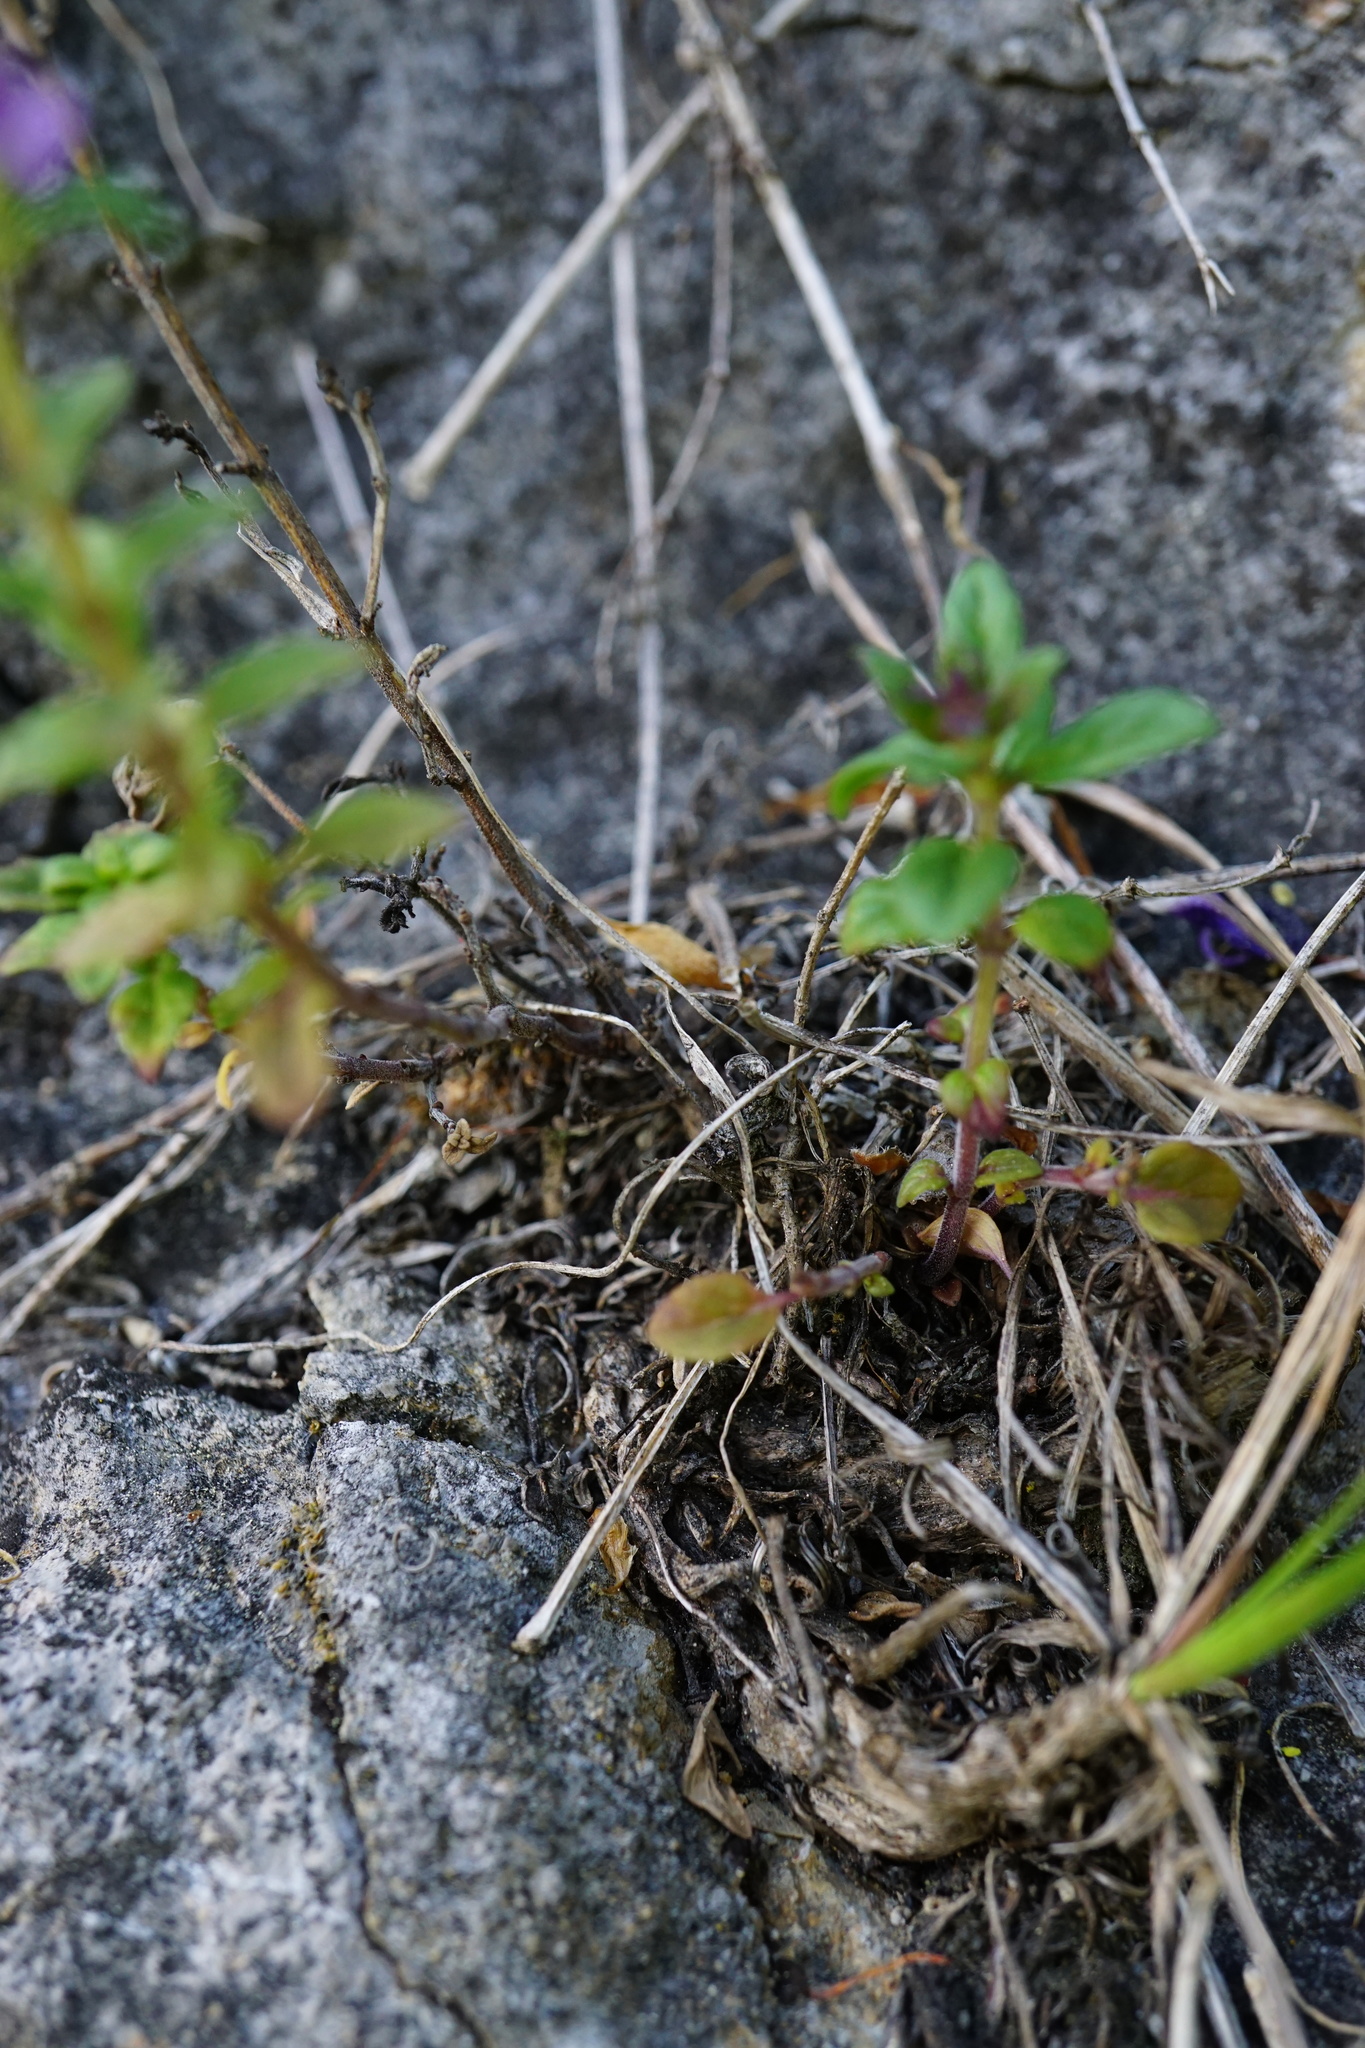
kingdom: Plantae
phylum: Tracheophyta
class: Magnoliopsida
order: Lamiales
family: Lamiaceae
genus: Clinopodium
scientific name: Clinopodium acinos
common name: Basil thyme
